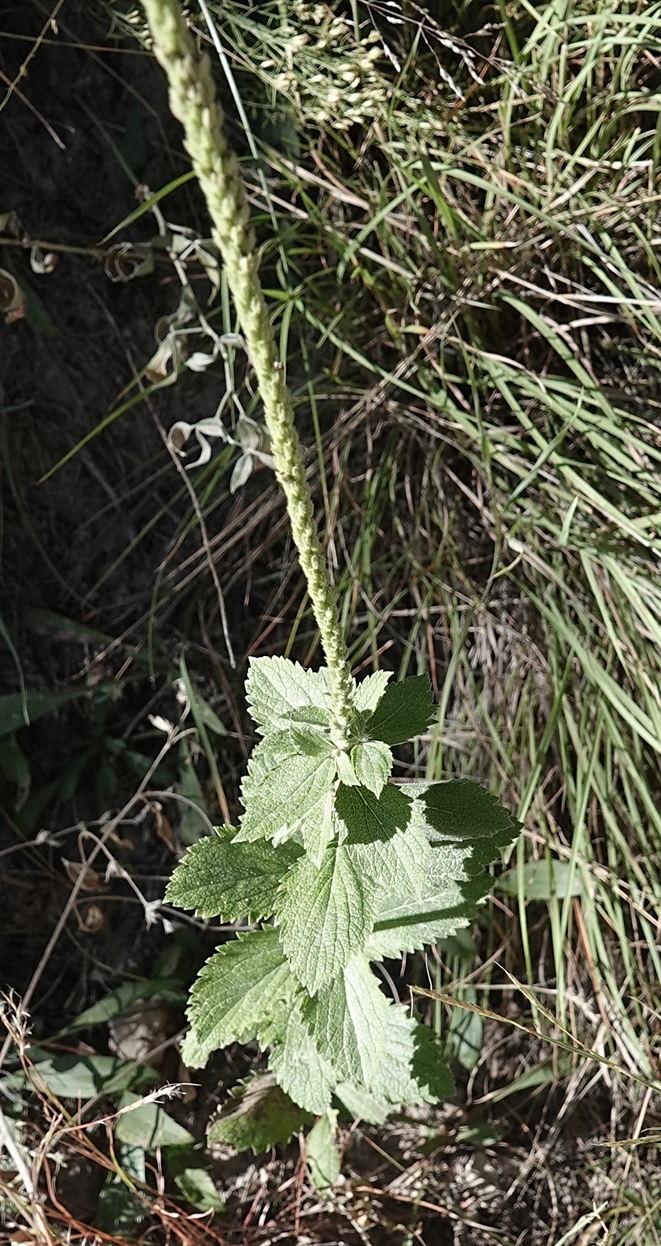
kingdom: Plantae
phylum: Tracheophyta
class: Magnoliopsida
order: Lamiales
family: Verbenaceae
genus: Verbena
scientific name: Verbena stricta
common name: Hoary vervain
